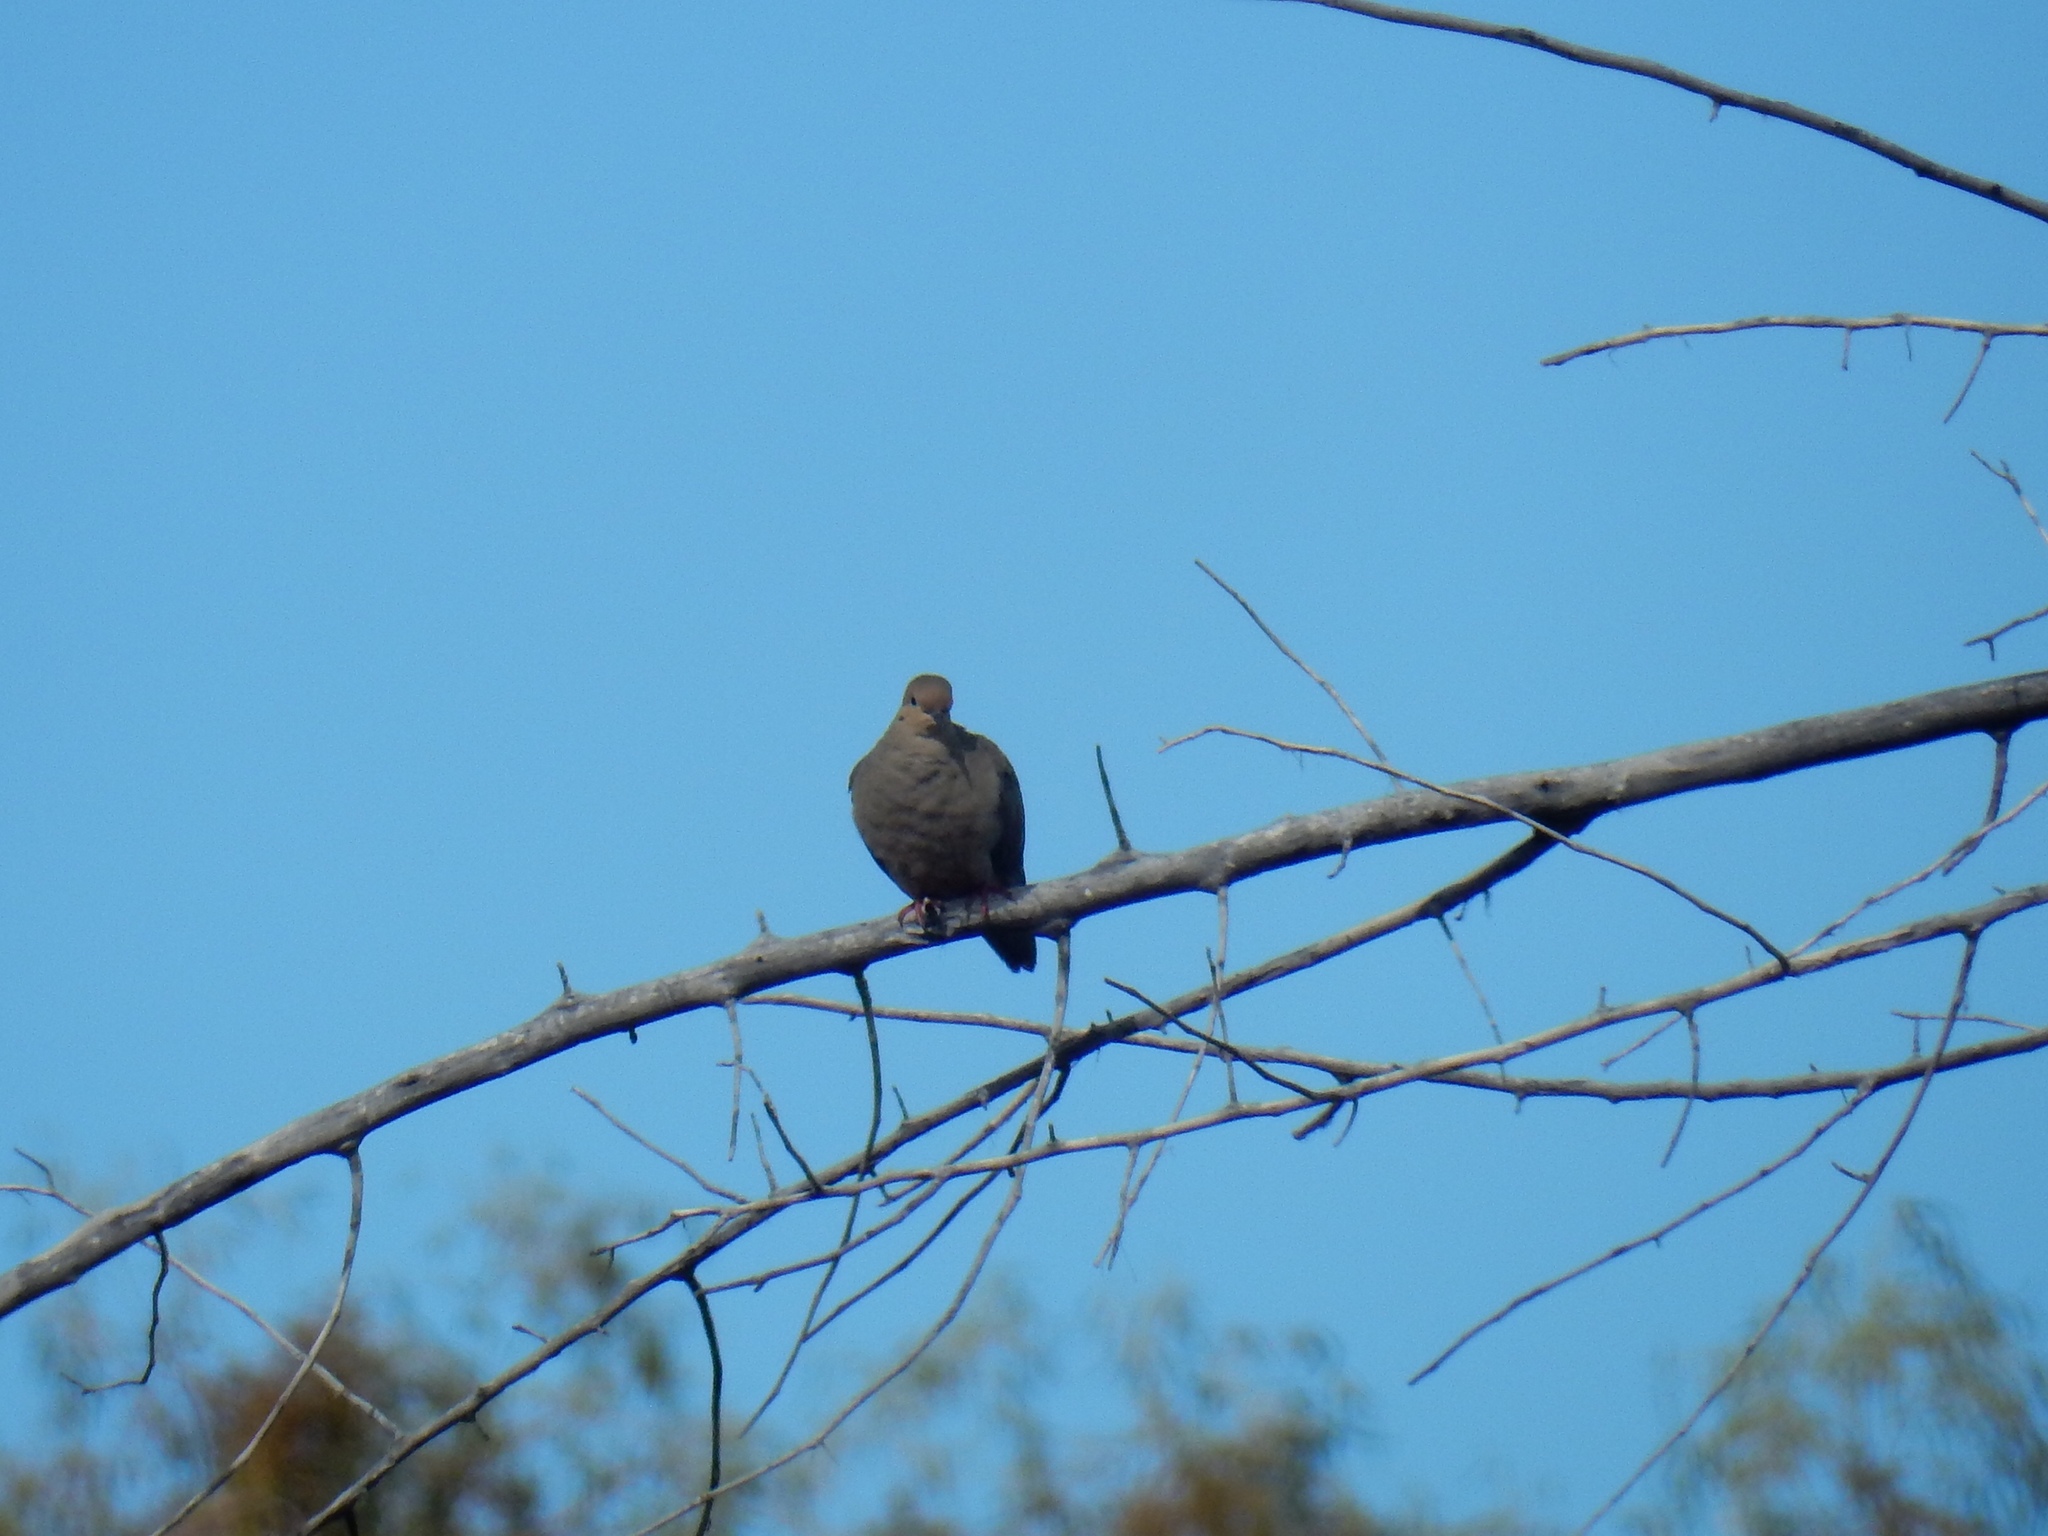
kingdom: Animalia
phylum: Chordata
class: Aves
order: Columbiformes
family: Columbidae
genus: Zenaida
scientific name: Zenaida macroura
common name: Mourning dove
